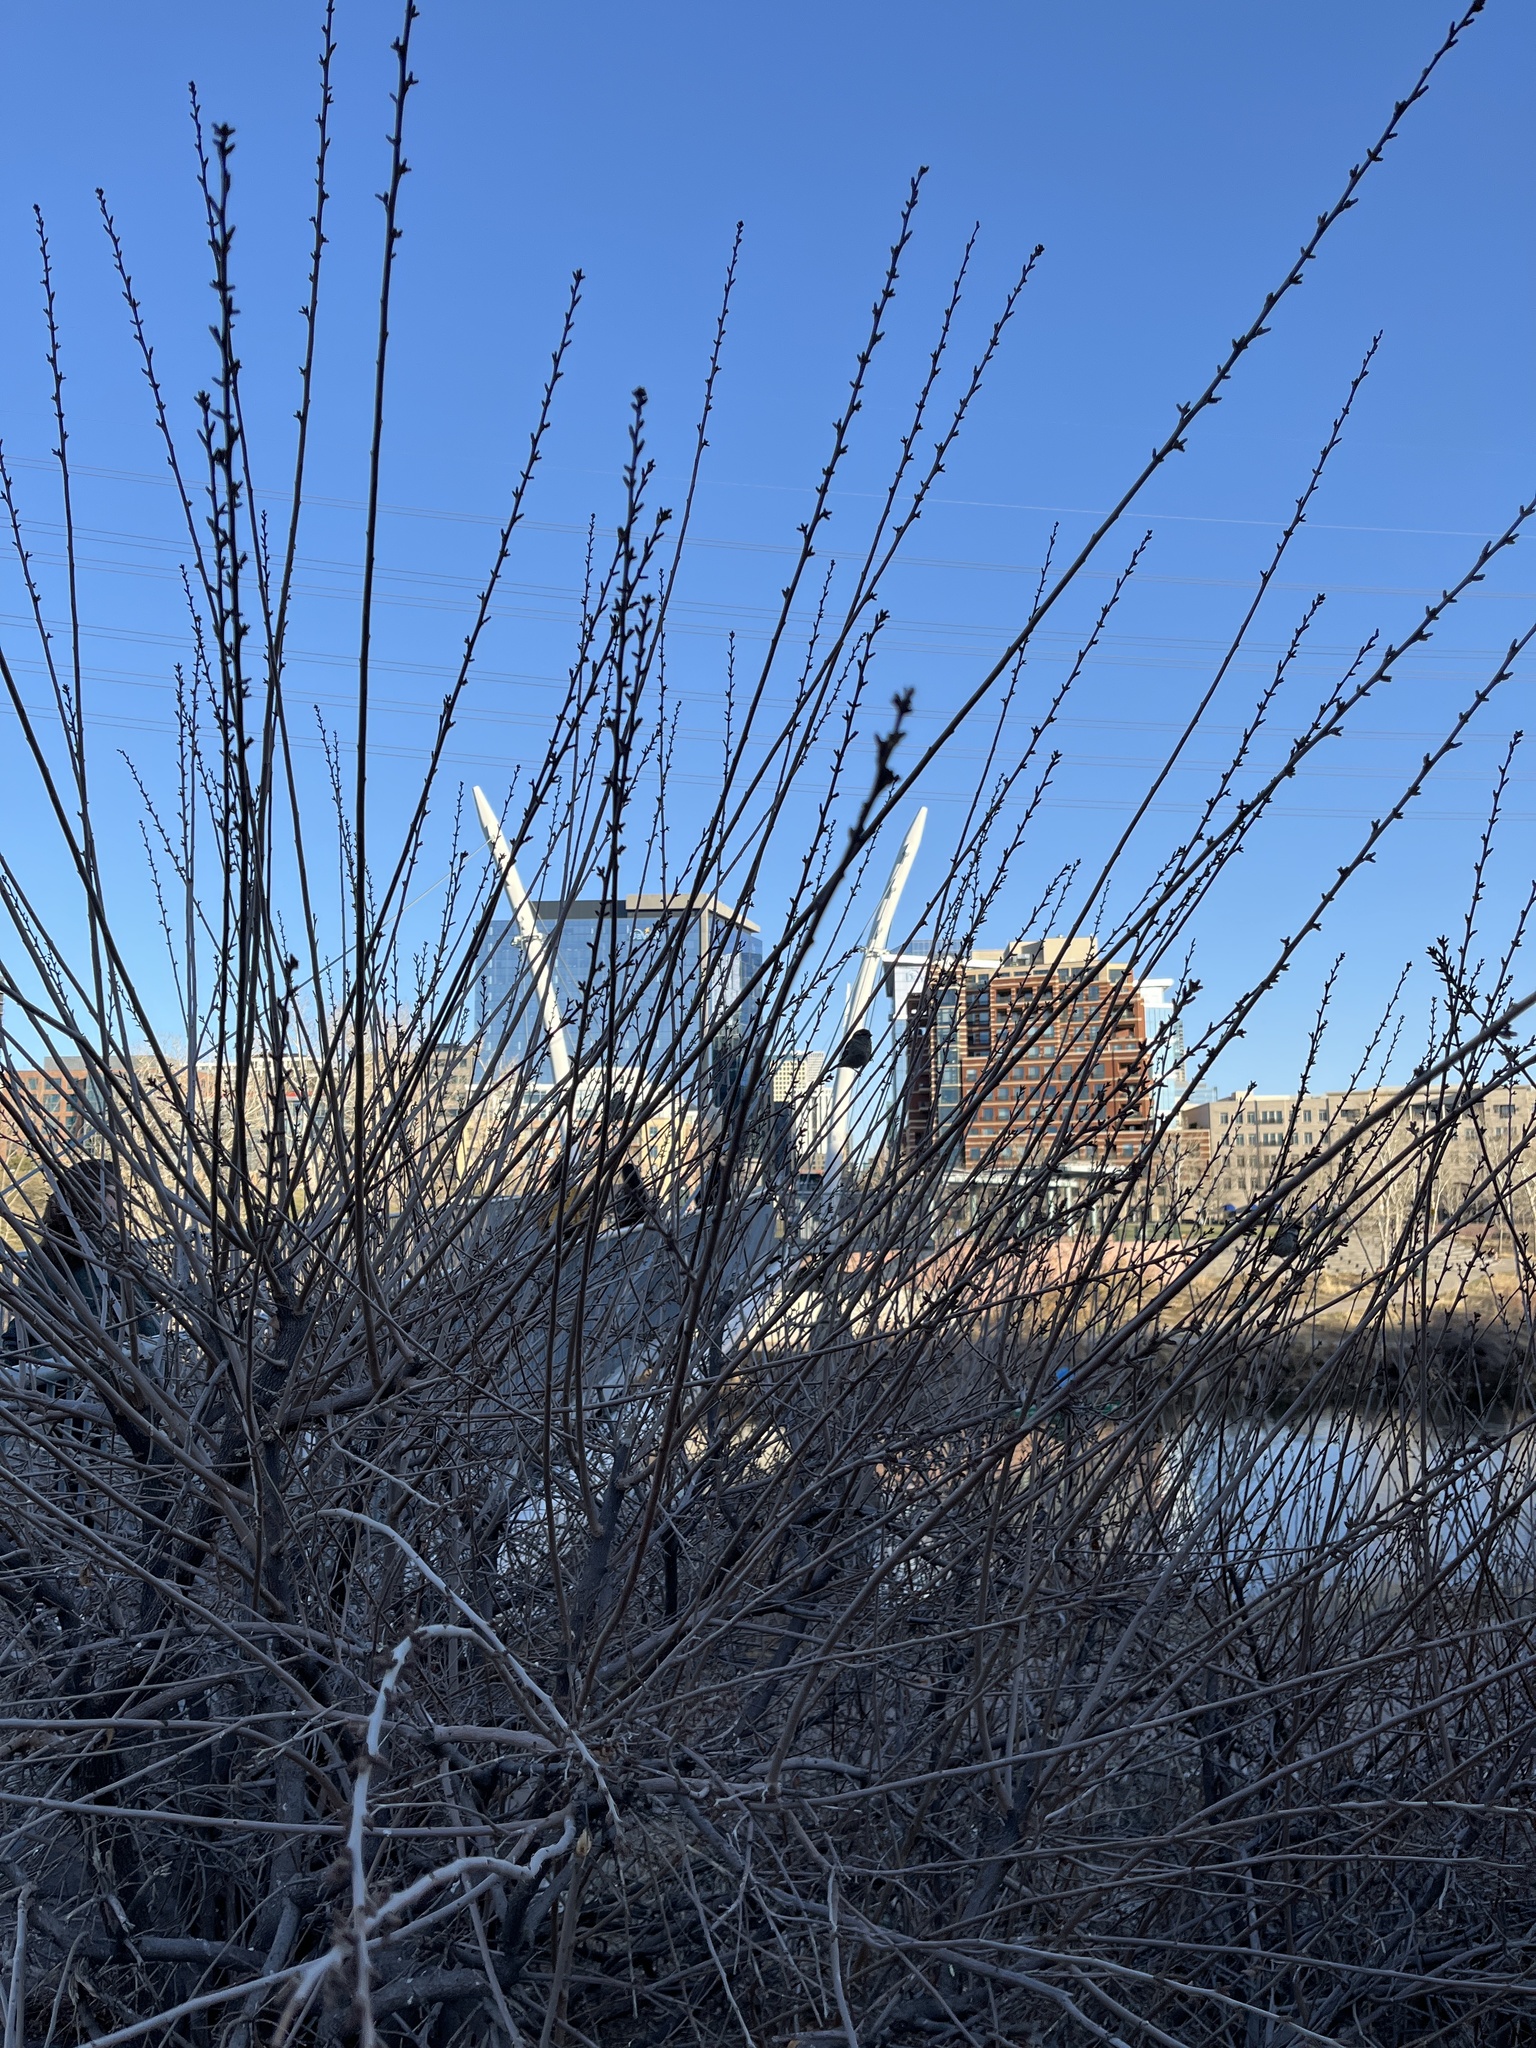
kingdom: Animalia
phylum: Chordata
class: Aves
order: Passeriformes
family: Passeridae
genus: Passer
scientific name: Passer domesticus
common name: House sparrow
